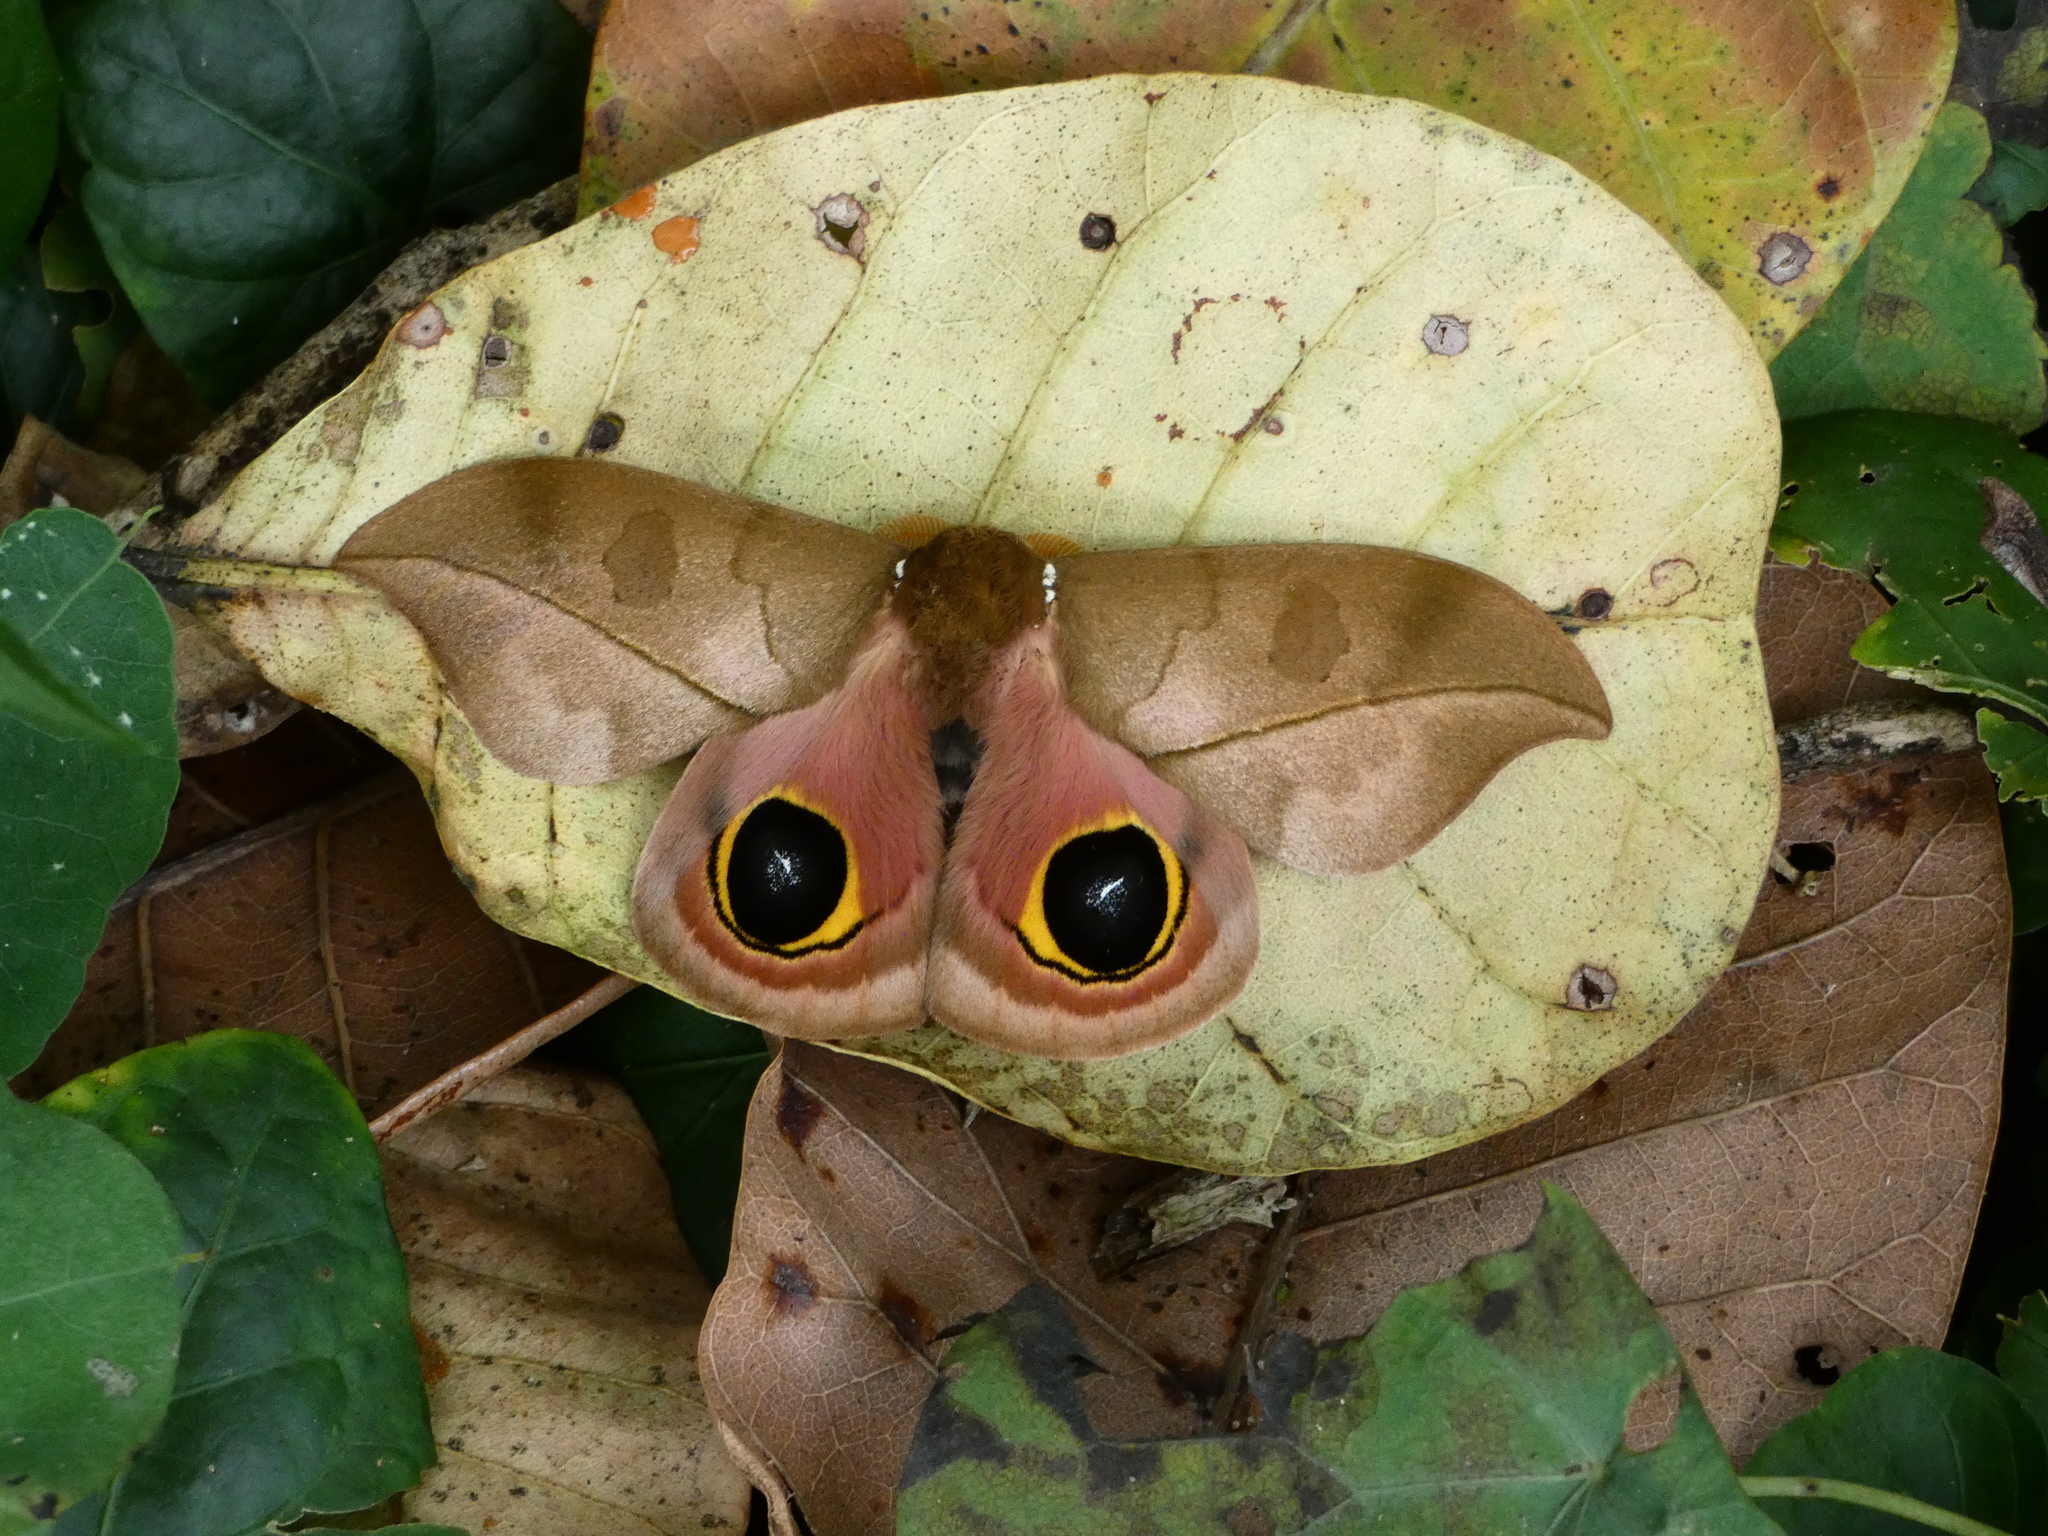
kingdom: Animalia
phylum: Arthropoda
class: Insecta
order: Lepidoptera
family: Saturniidae
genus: Automeris
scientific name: Automeris melanops
